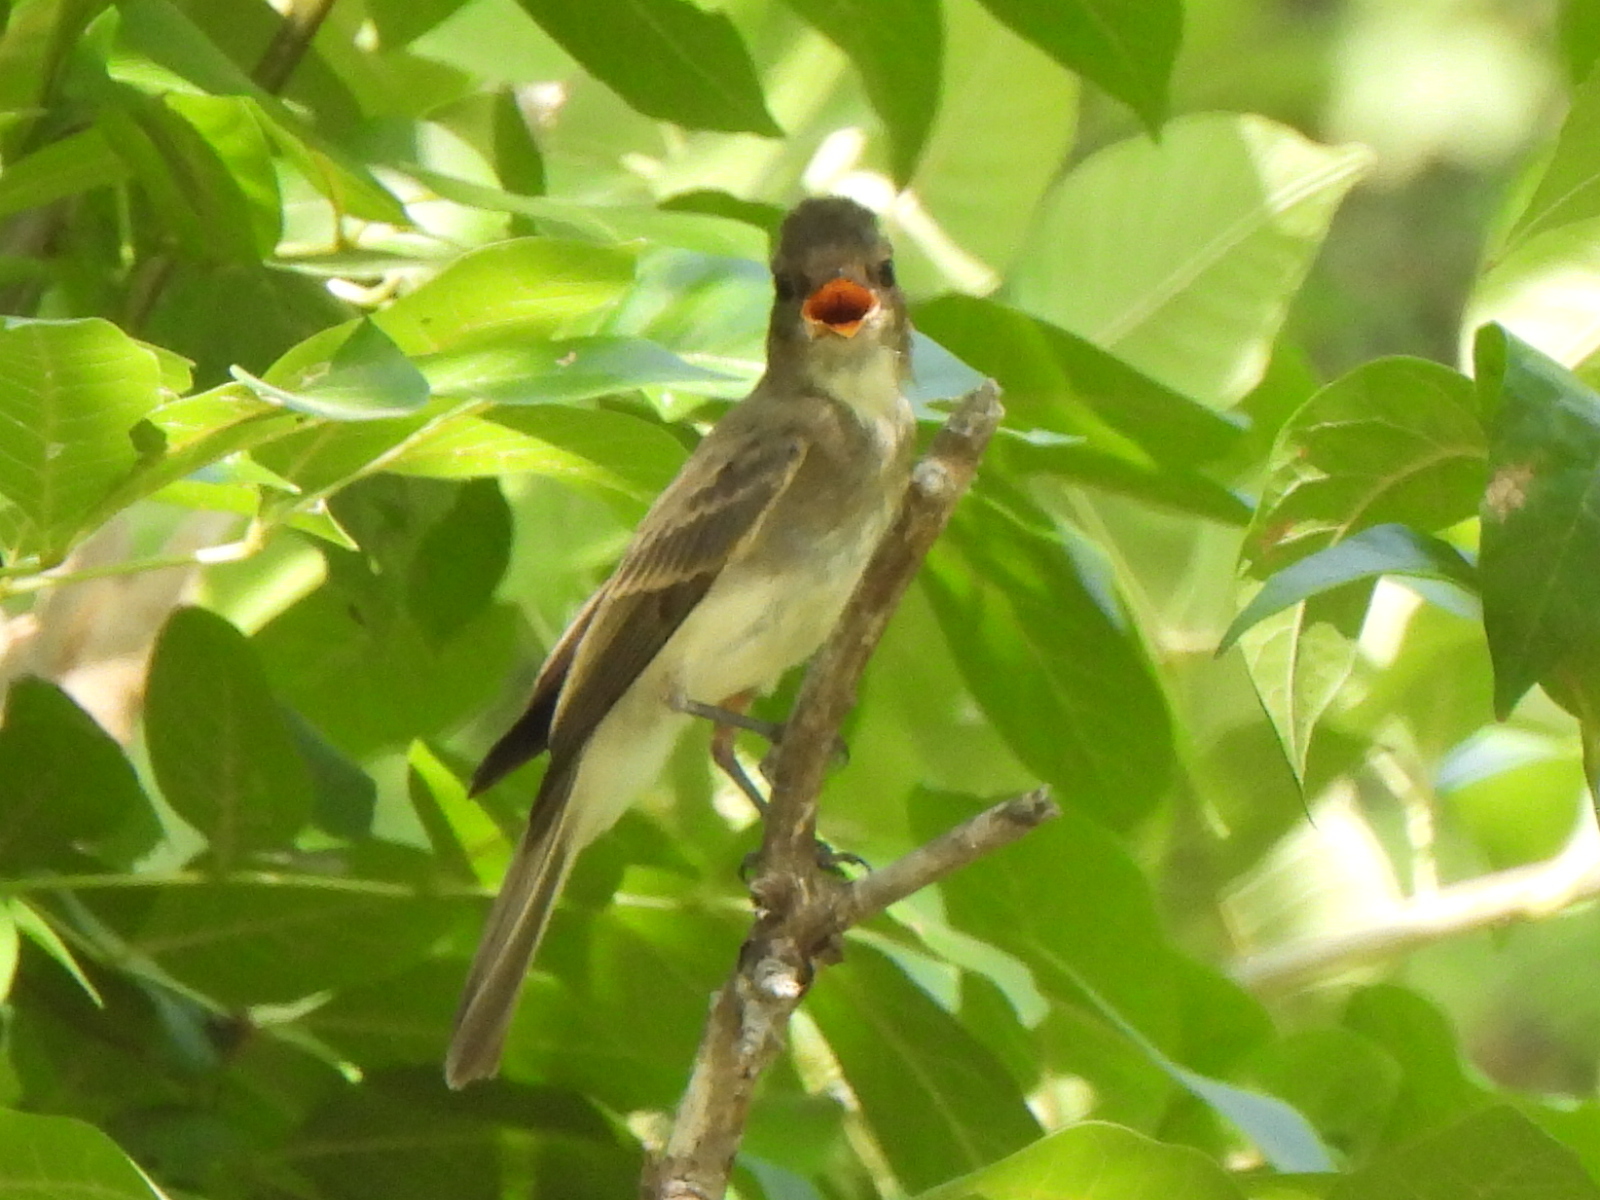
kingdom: Animalia
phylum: Chordata
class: Aves
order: Passeriformes
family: Tyrannidae
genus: Myiarchus
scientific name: Myiarchus crinitus
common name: Great crested flycatcher
